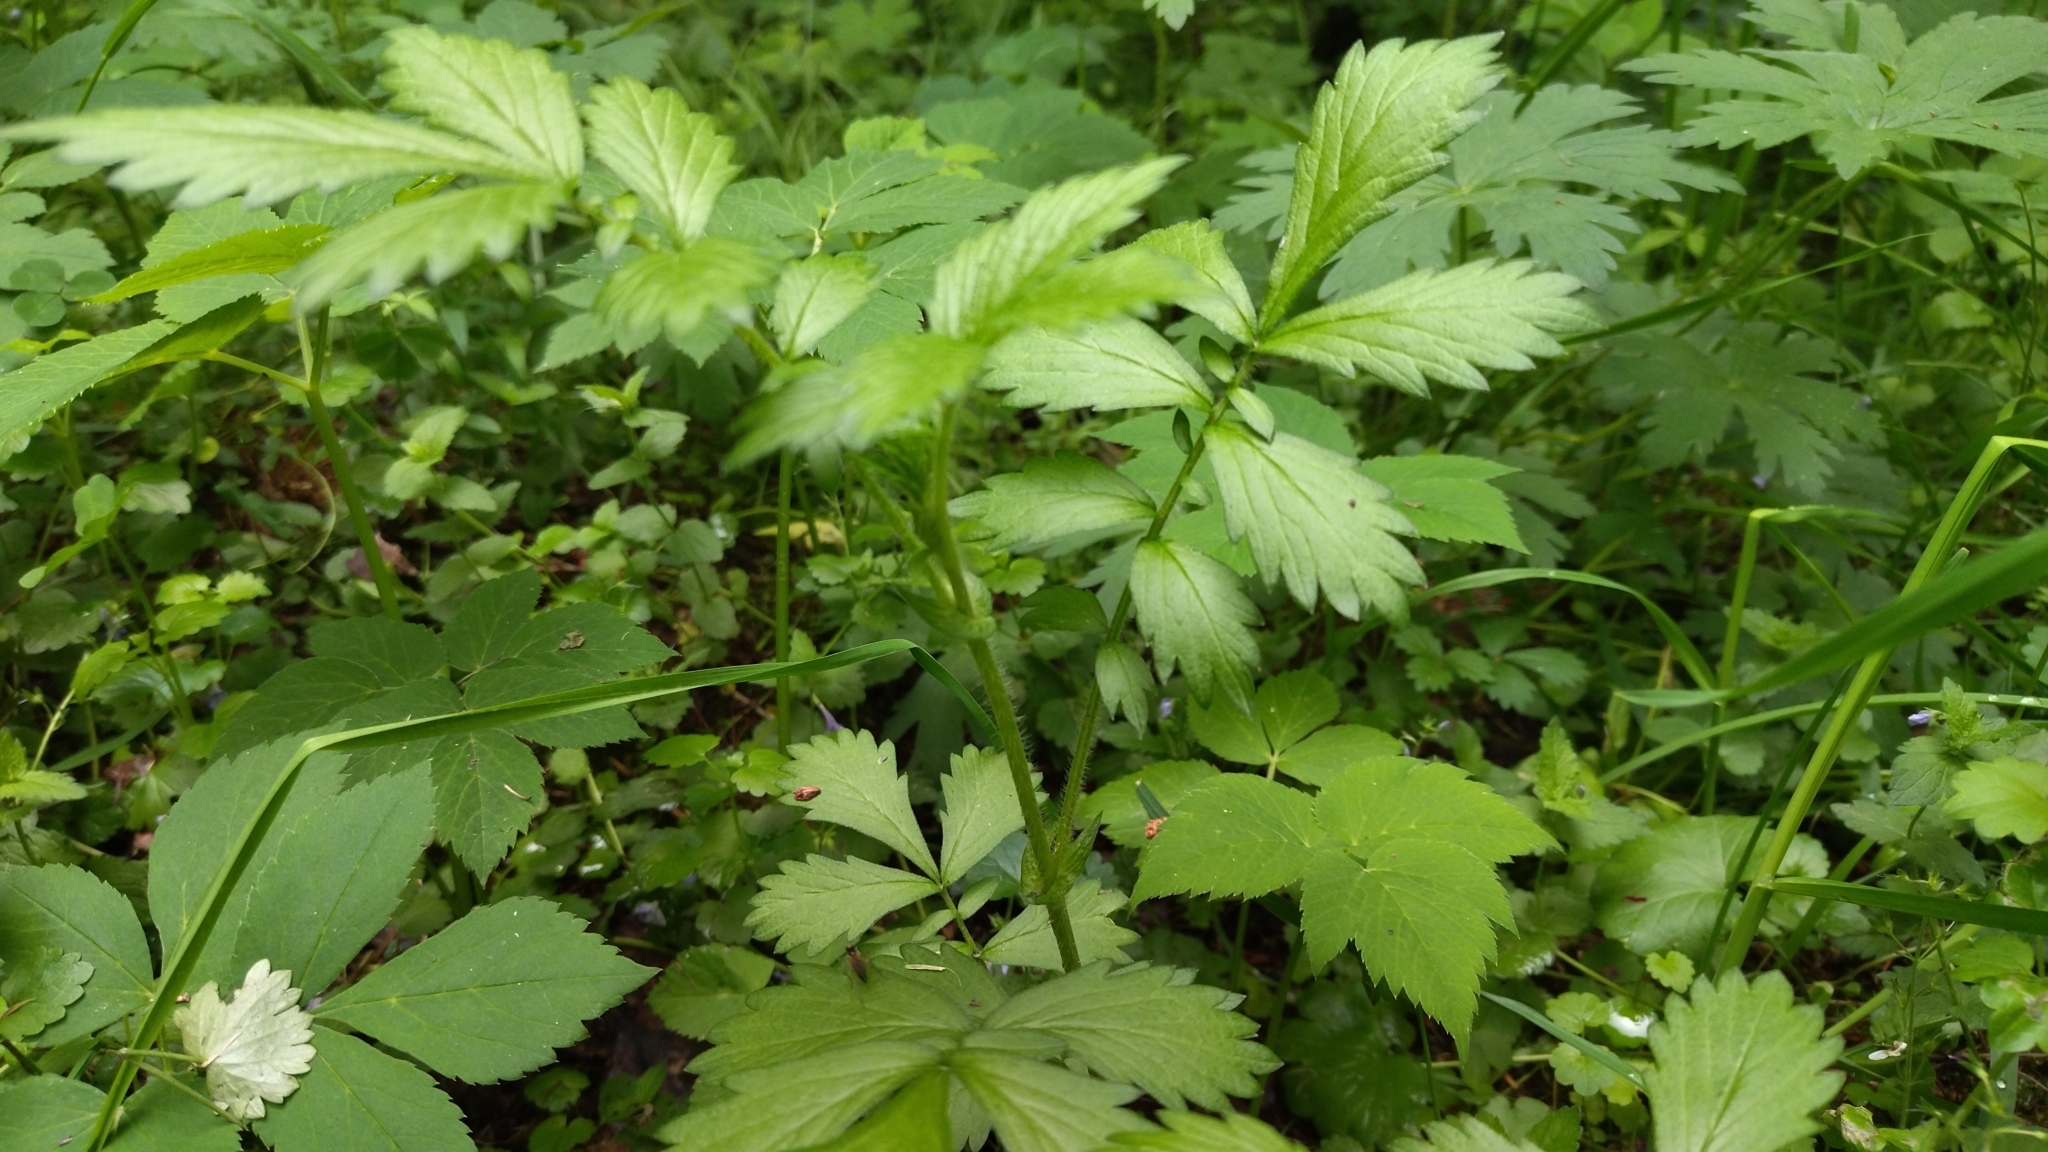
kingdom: Plantae
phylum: Tracheophyta
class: Magnoliopsida
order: Rosales
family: Rosaceae
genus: Agrimonia
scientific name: Agrimonia pilosa
